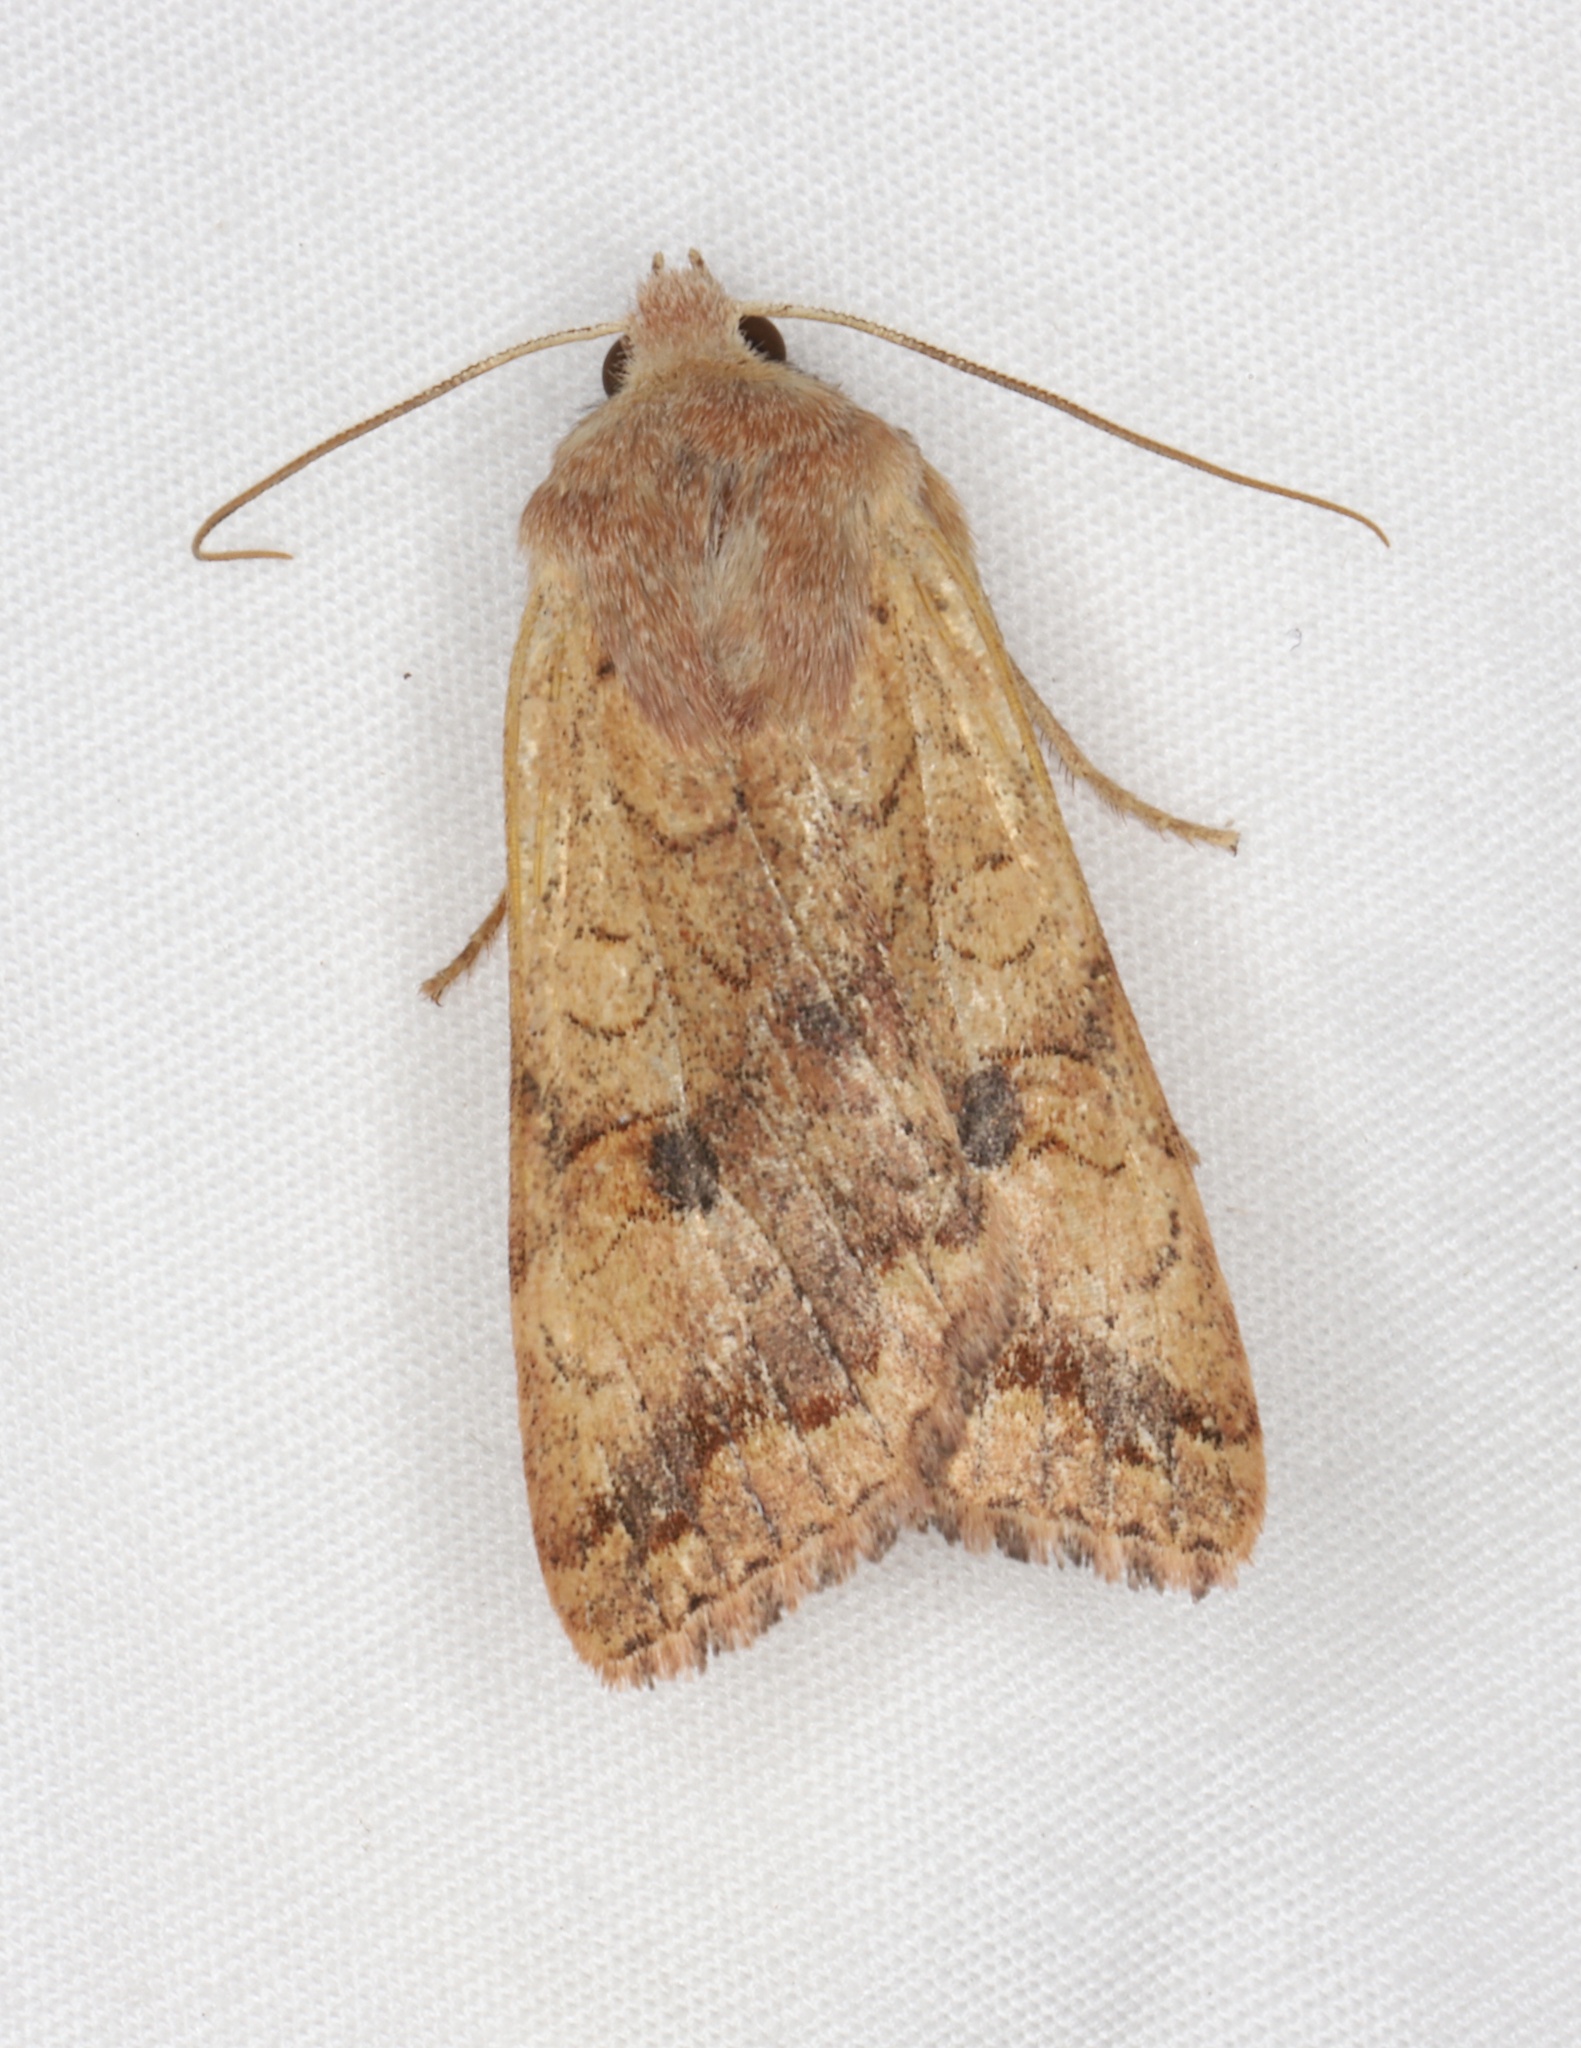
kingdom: Animalia
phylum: Arthropoda
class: Insecta
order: Lepidoptera
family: Noctuidae
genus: Agrochola
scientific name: Agrochola bicolorago
